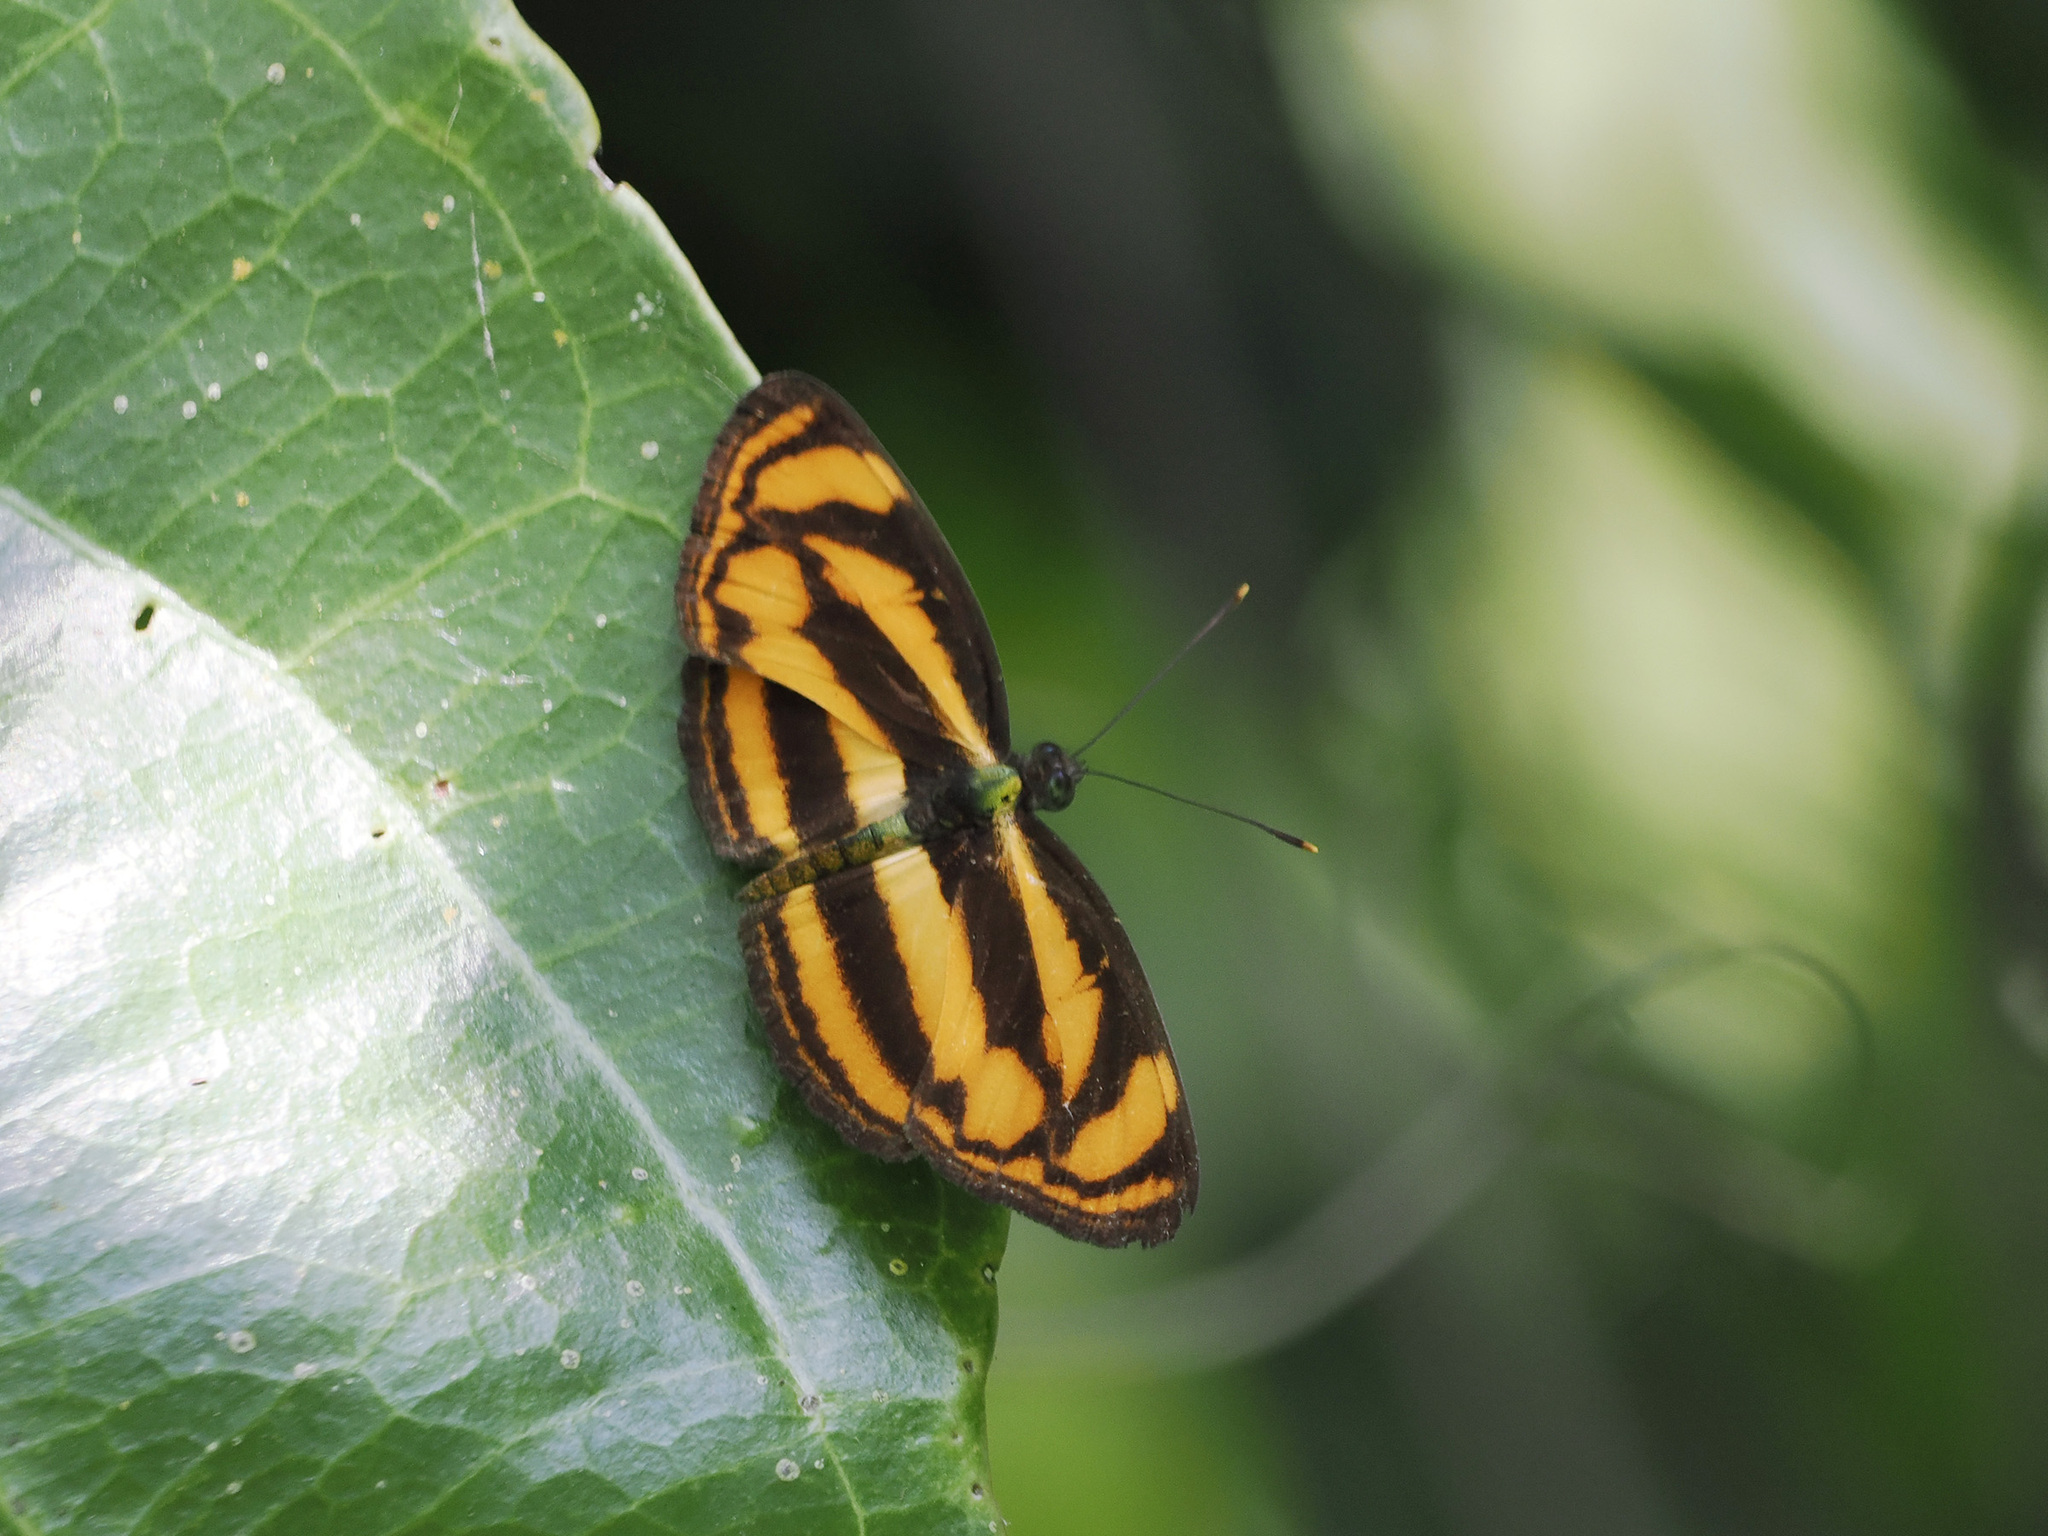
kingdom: Animalia
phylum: Arthropoda
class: Insecta
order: Lepidoptera
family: Nymphalidae
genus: Lasippa
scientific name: Lasippa tiga
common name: Malayan lascar
